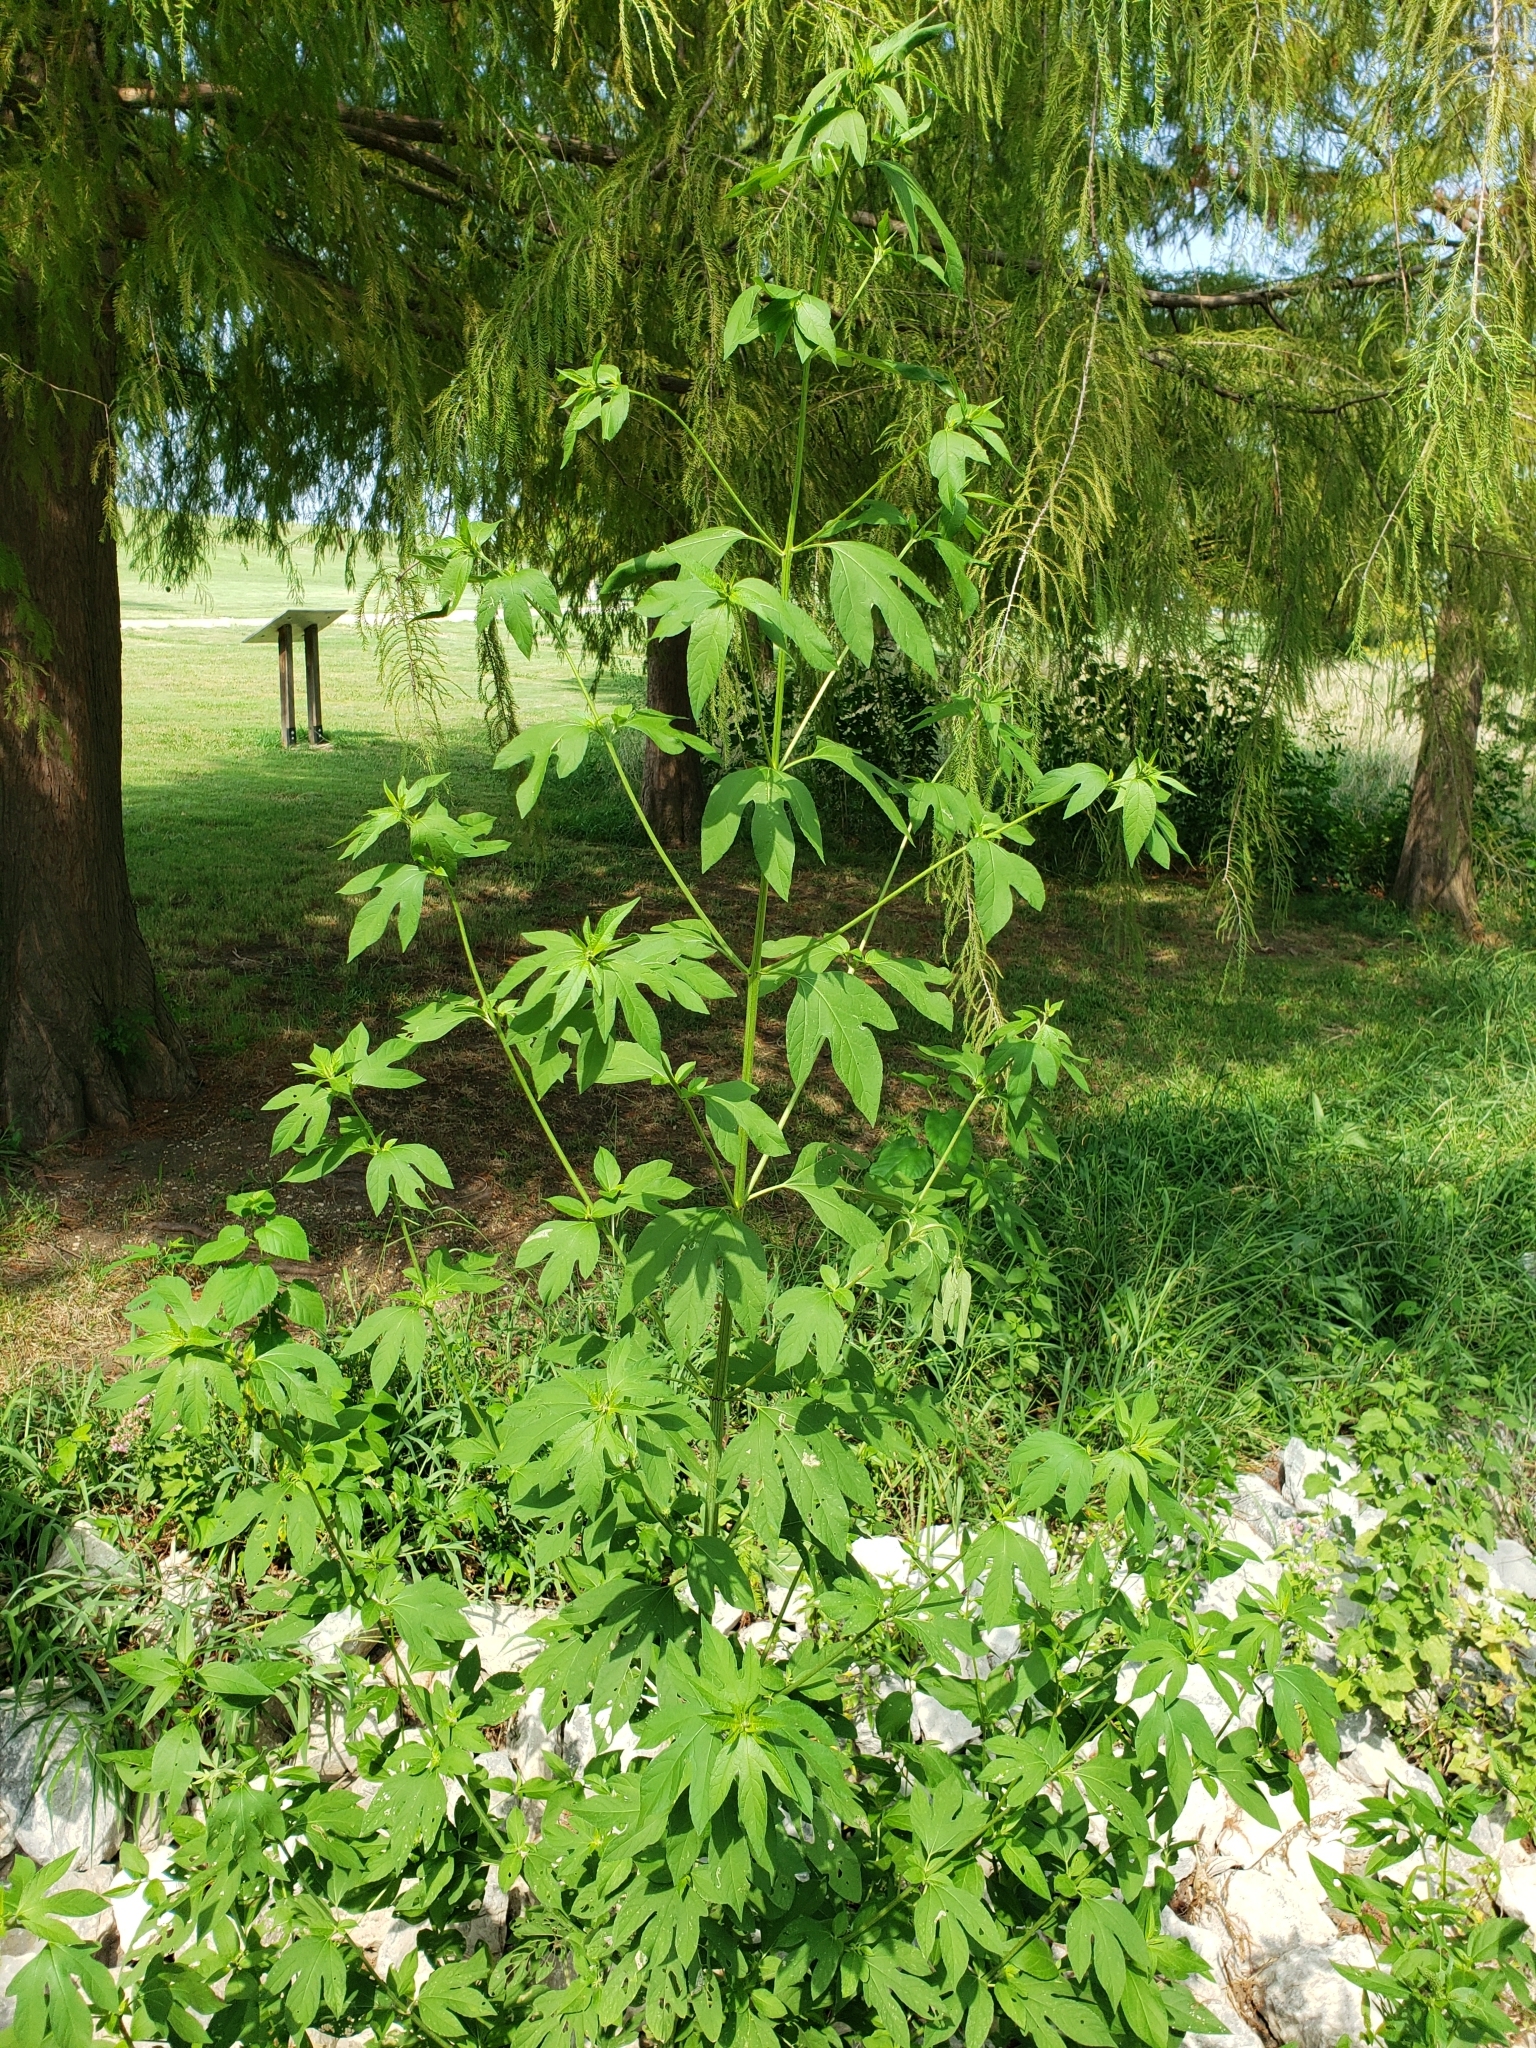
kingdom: Plantae
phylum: Tracheophyta
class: Magnoliopsida
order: Asterales
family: Asteraceae
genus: Ambrosia
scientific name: Ambrosia trifida
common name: Giant ragweed
